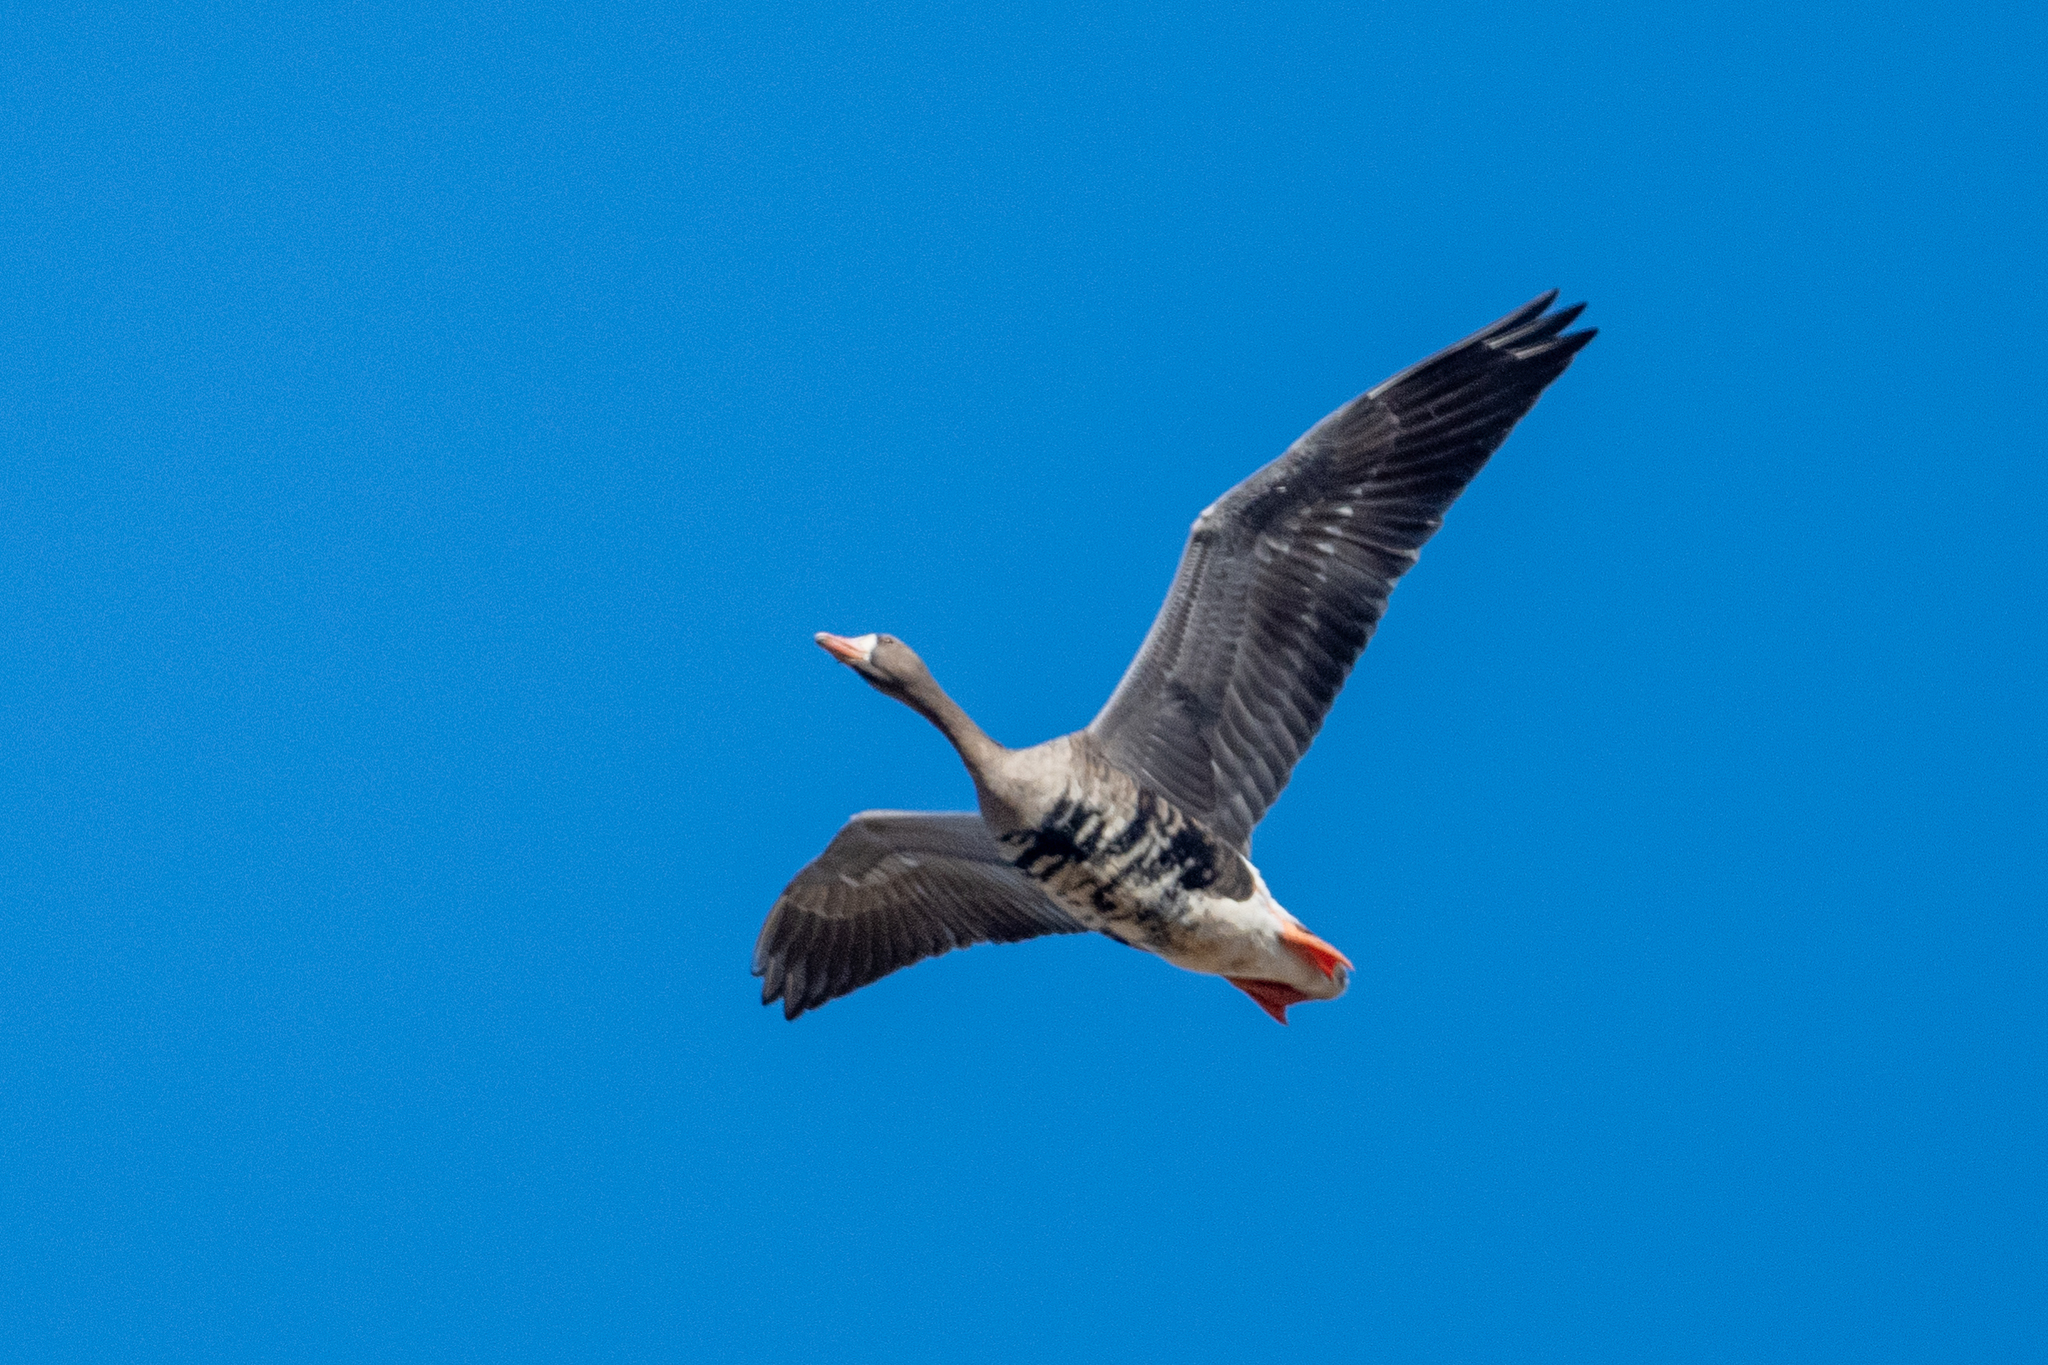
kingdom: Animalia
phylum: Chordata
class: Aves
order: Anseriformes
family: Anatidae
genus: Anser
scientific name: Anser albifrons
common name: Greater white-fronted goose
